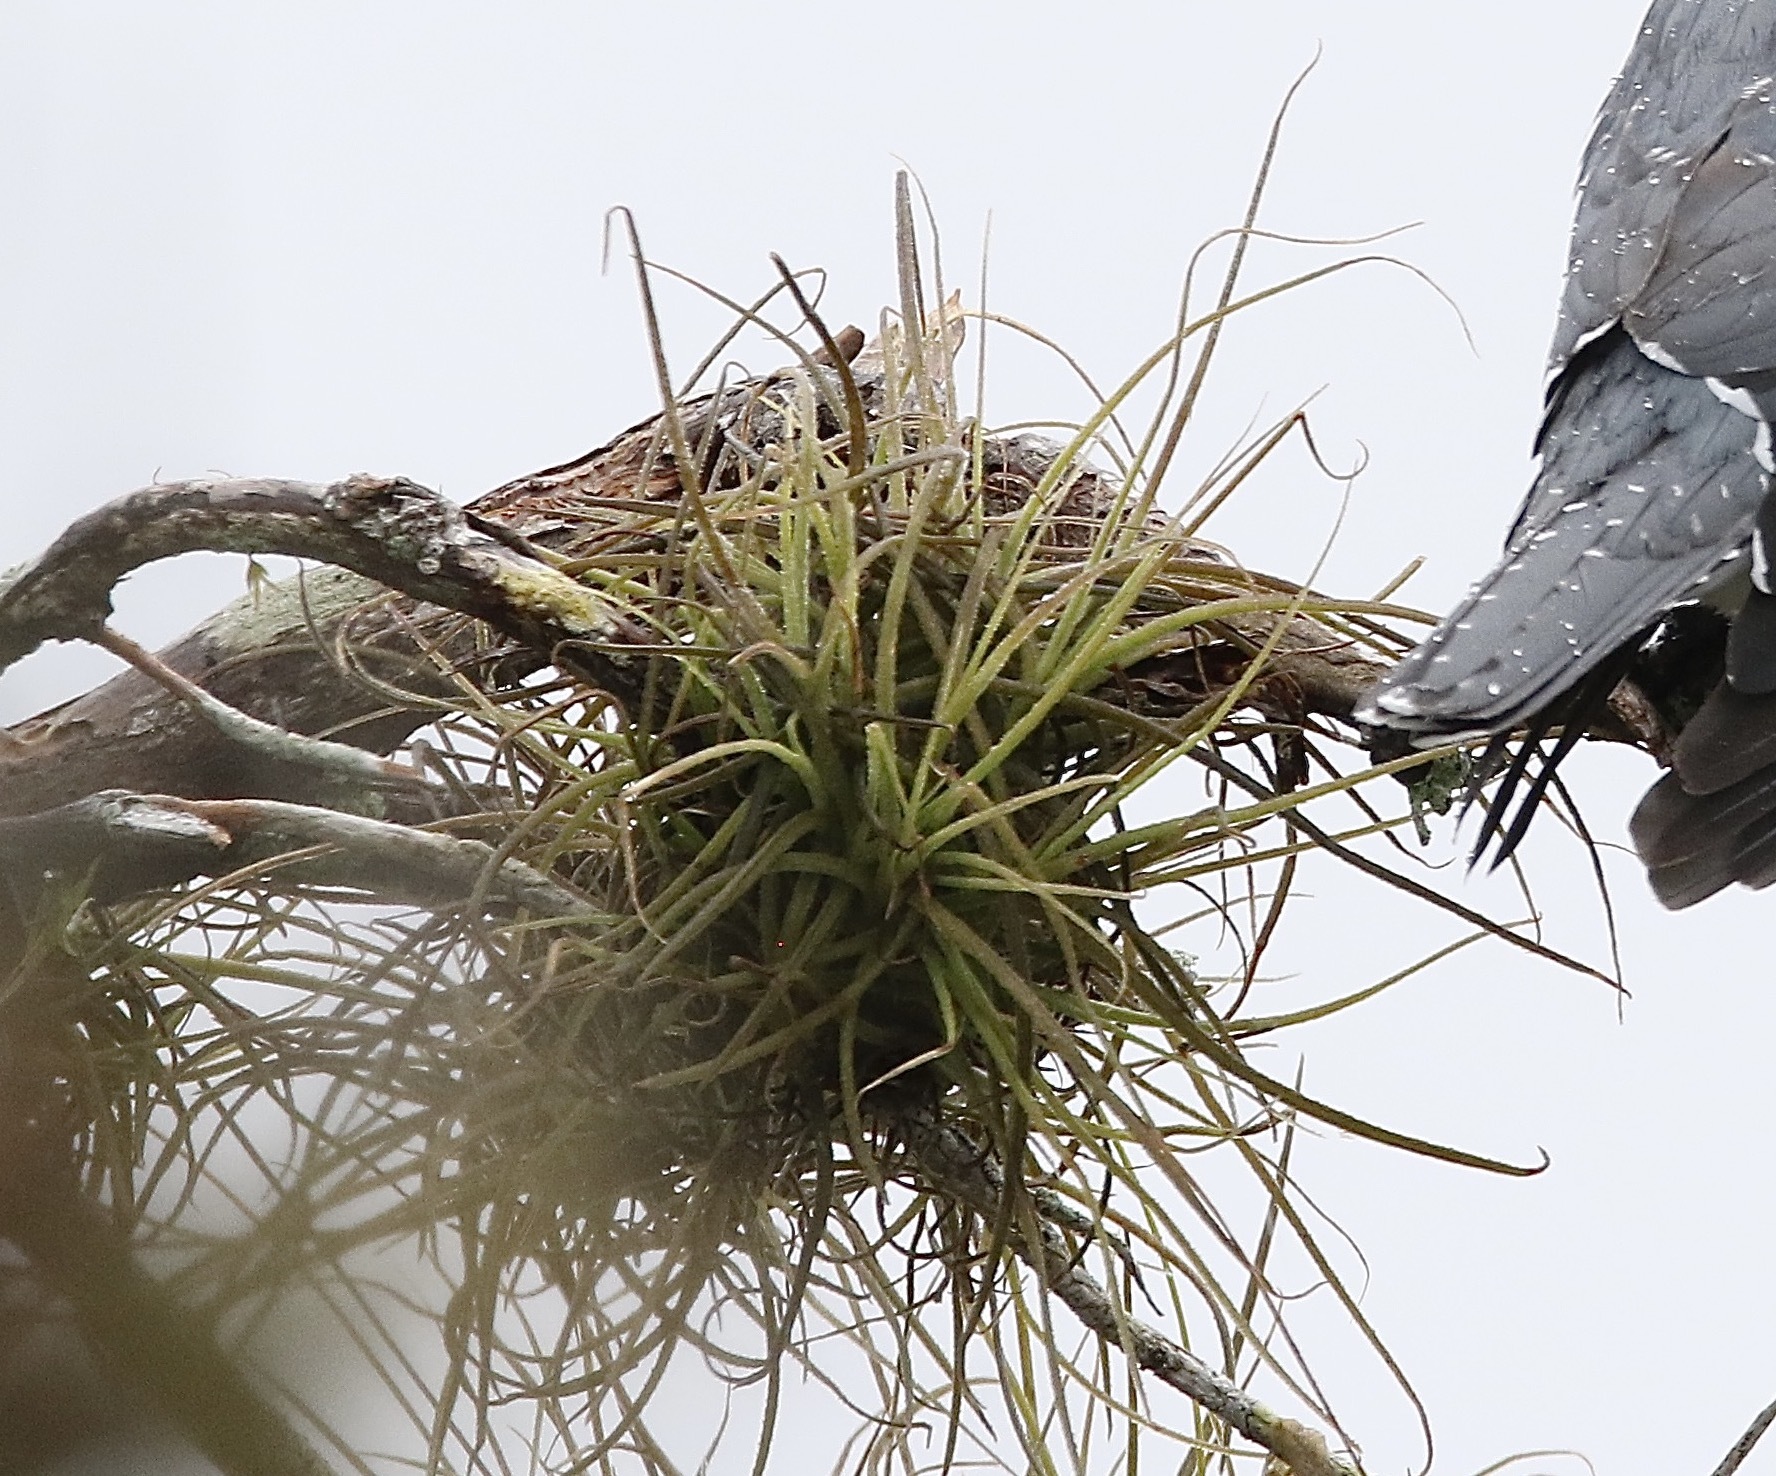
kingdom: Plantae
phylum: Tracheophyta
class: Liliopsida
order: Poales
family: Bromeliaceae
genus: Tillandsia
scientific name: Tillandsia recurvata
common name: Small ballmoss
